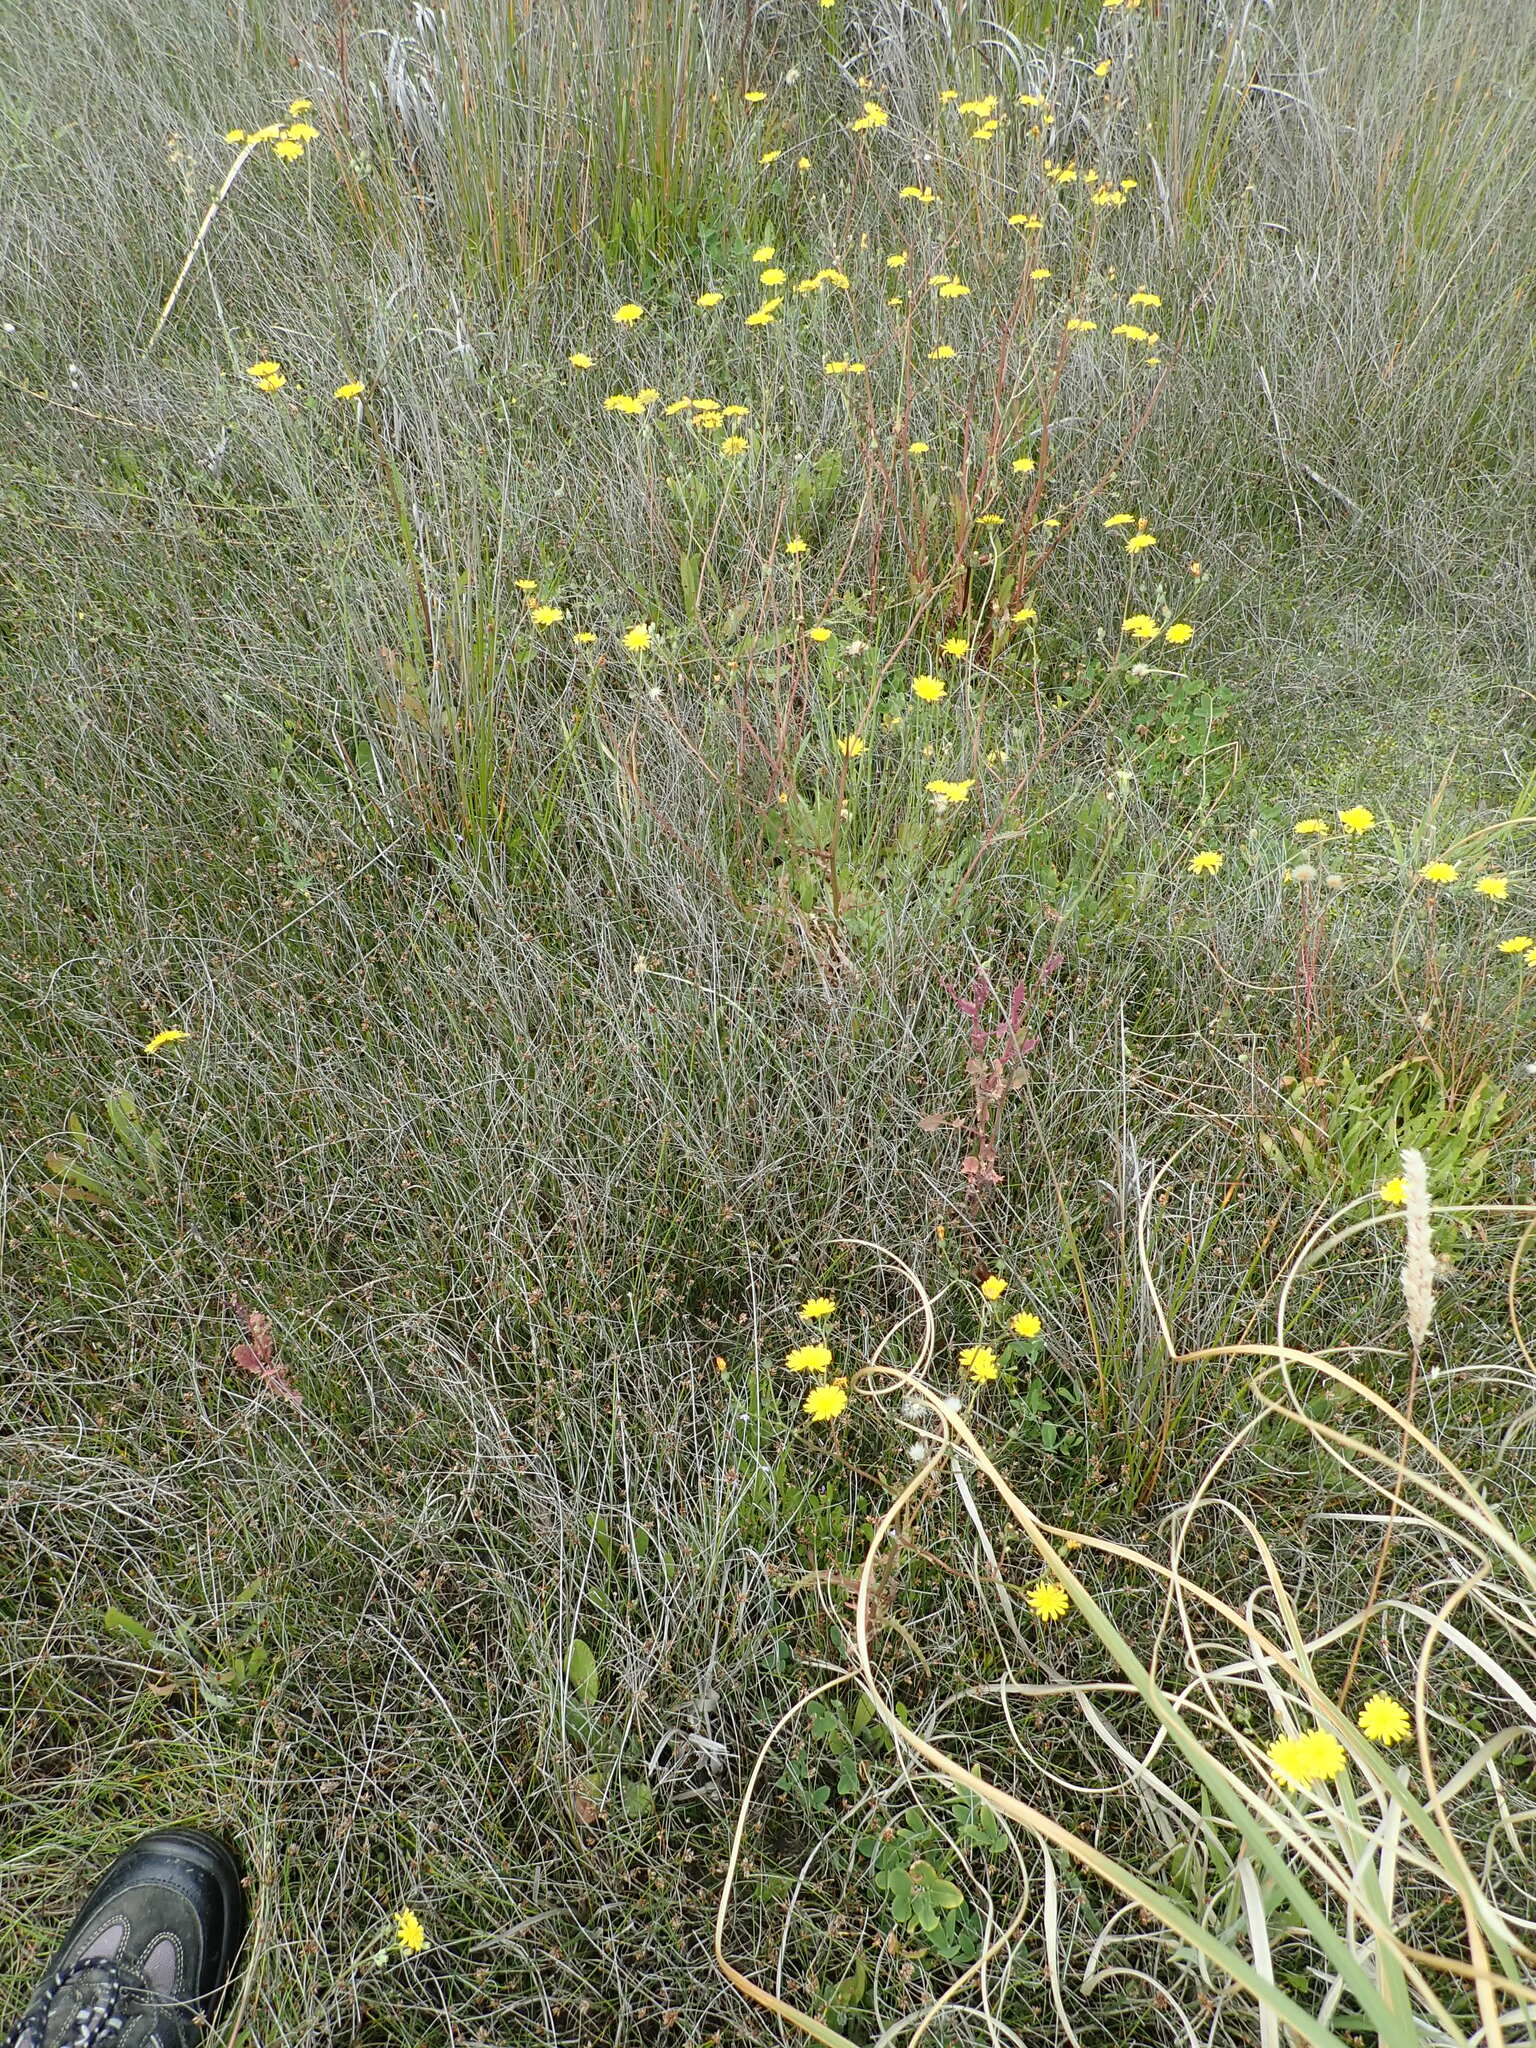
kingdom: Plantae
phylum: Tracheophyta
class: Magnoliopsida
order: Asterales
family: Asteraceae
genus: Crepis
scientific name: Crepis capillaris
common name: Smooth hawksbeard
